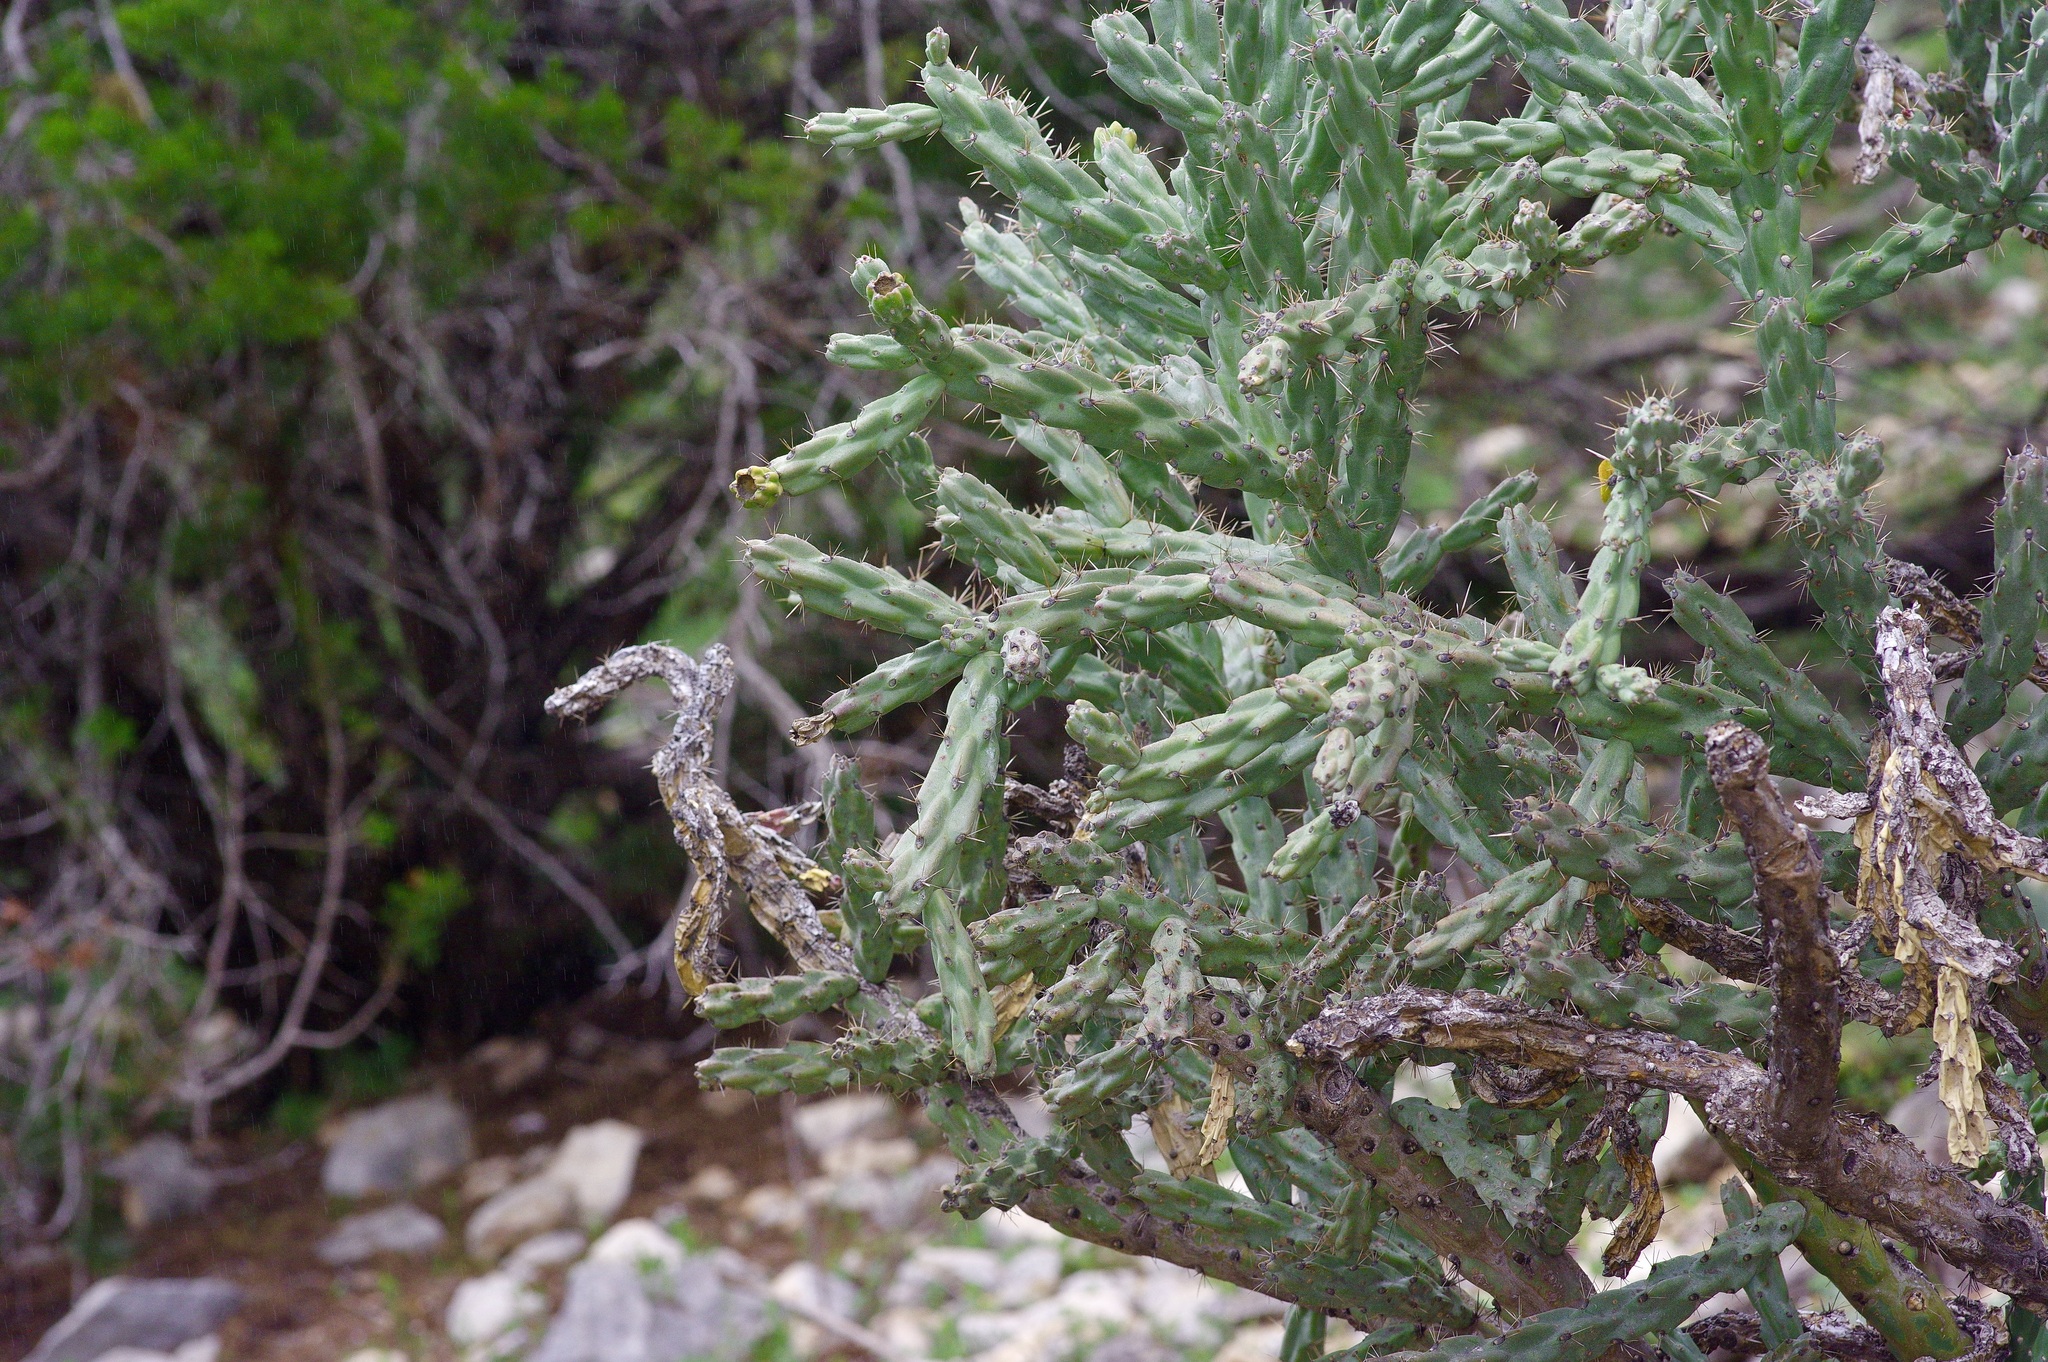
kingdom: Plantae
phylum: Tracheophyta
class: Magnoliopsida
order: Caryophyllales
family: Cactaceae
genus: Cylindropuntia
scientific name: Cylindropuntia imbricata
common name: Candelabrum cactus
